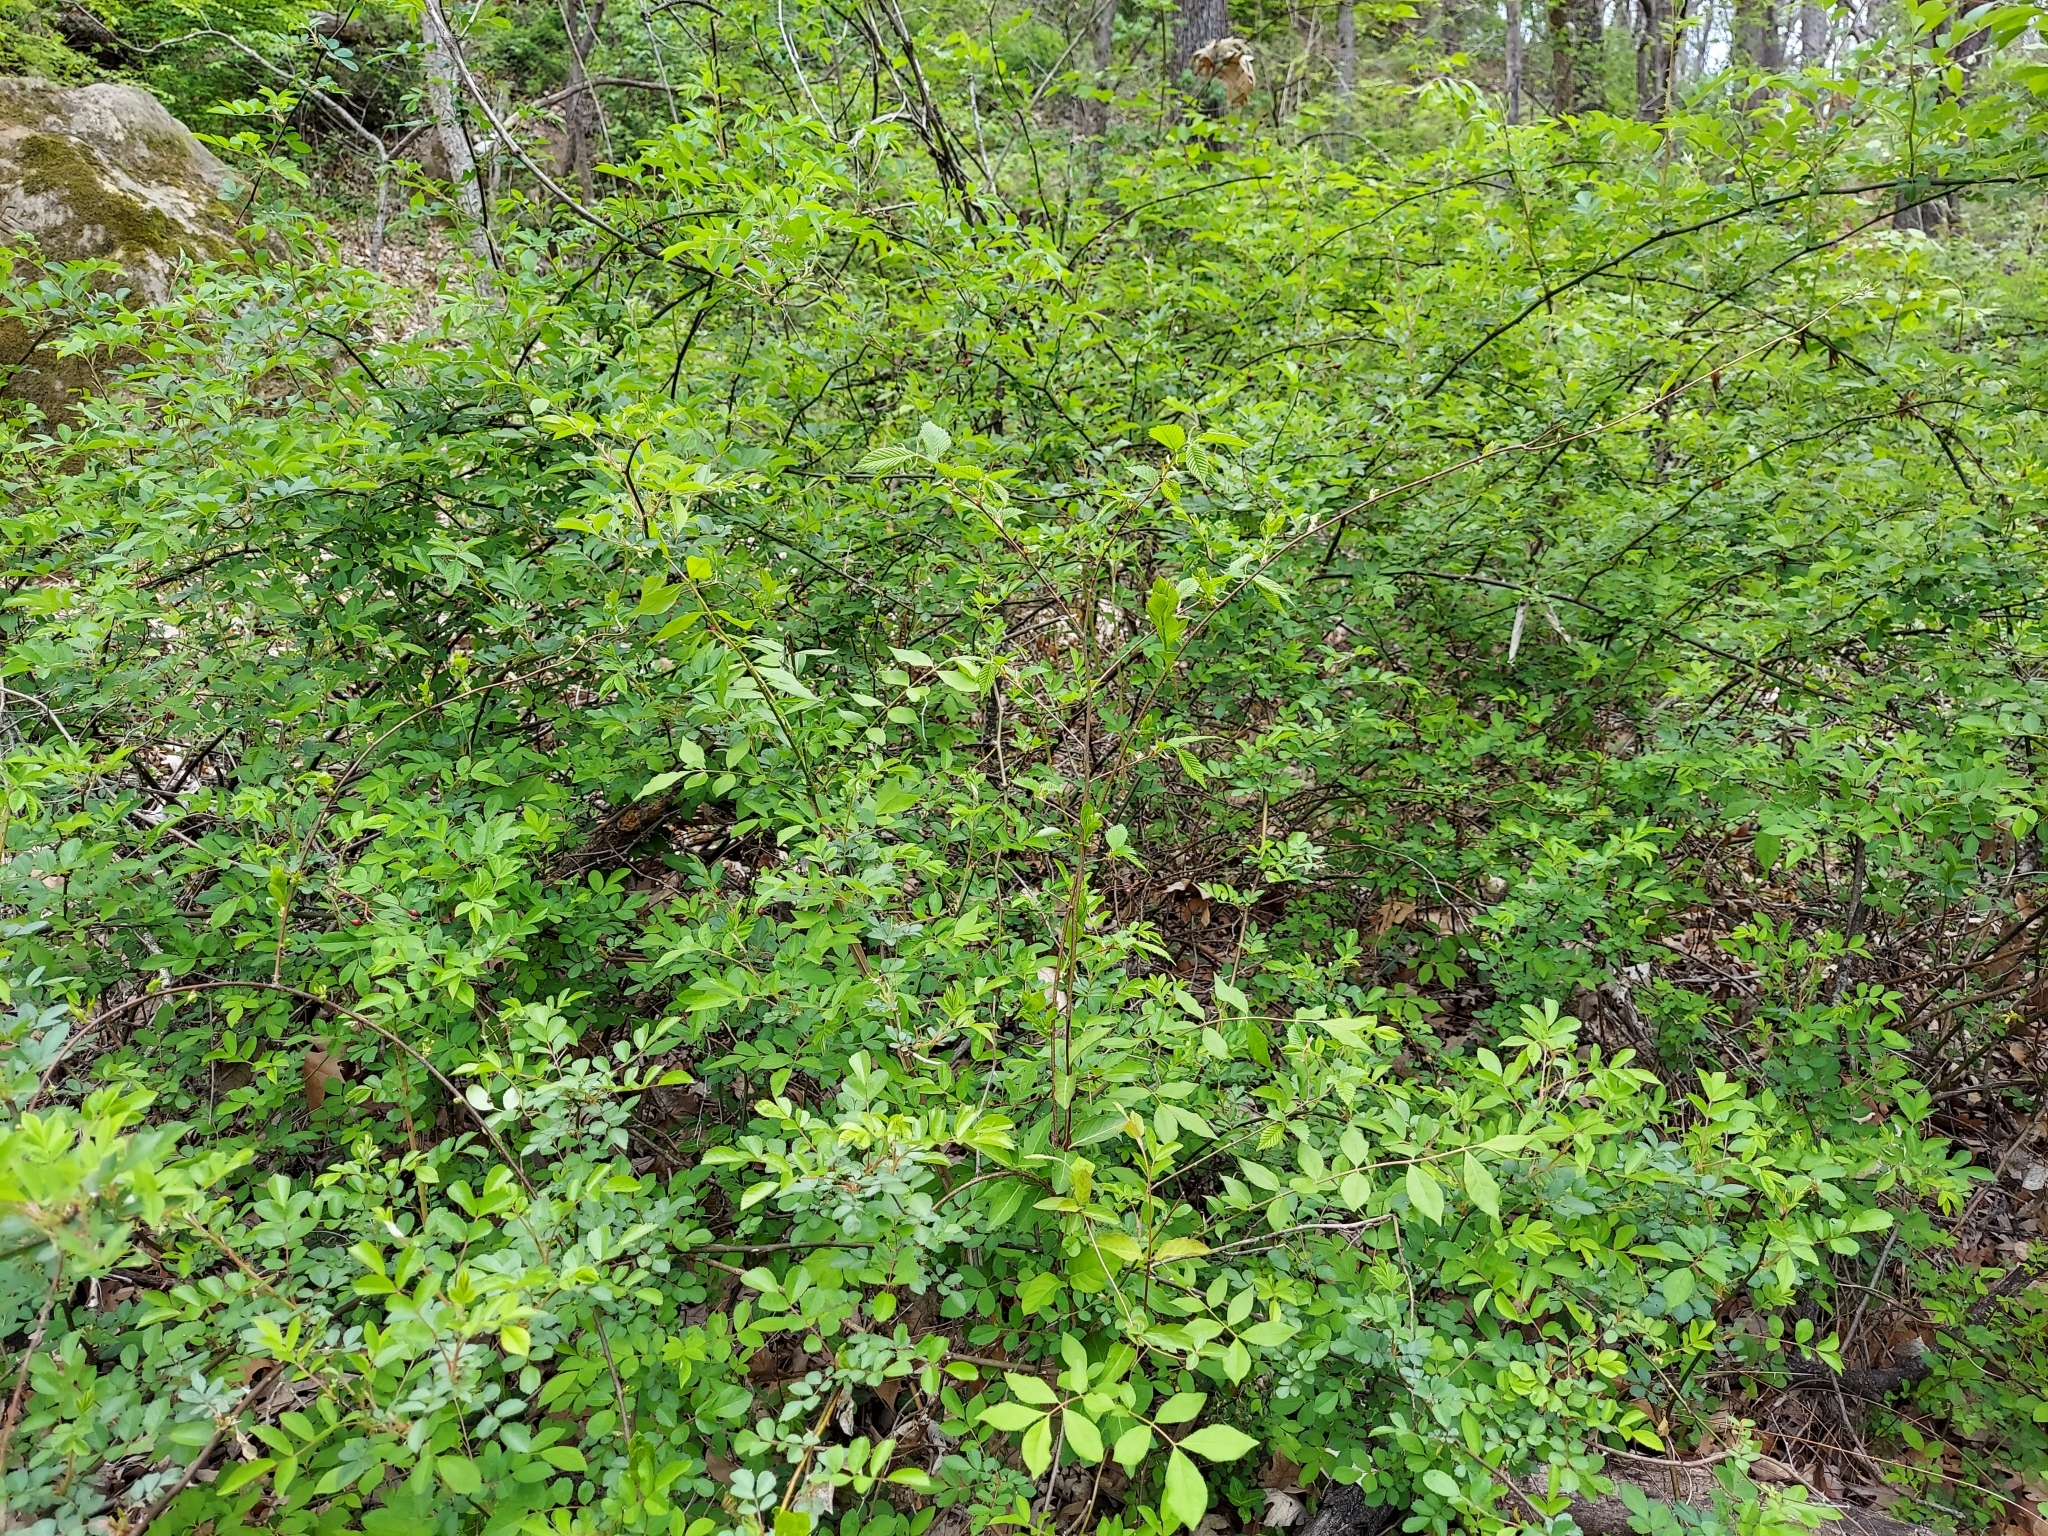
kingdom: Plantae
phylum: Tracheophyta
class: Magnoliopsida
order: Rosales
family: Rosaceae
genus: Rosa
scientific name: Rosa multiflora
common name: Multiflora rose
